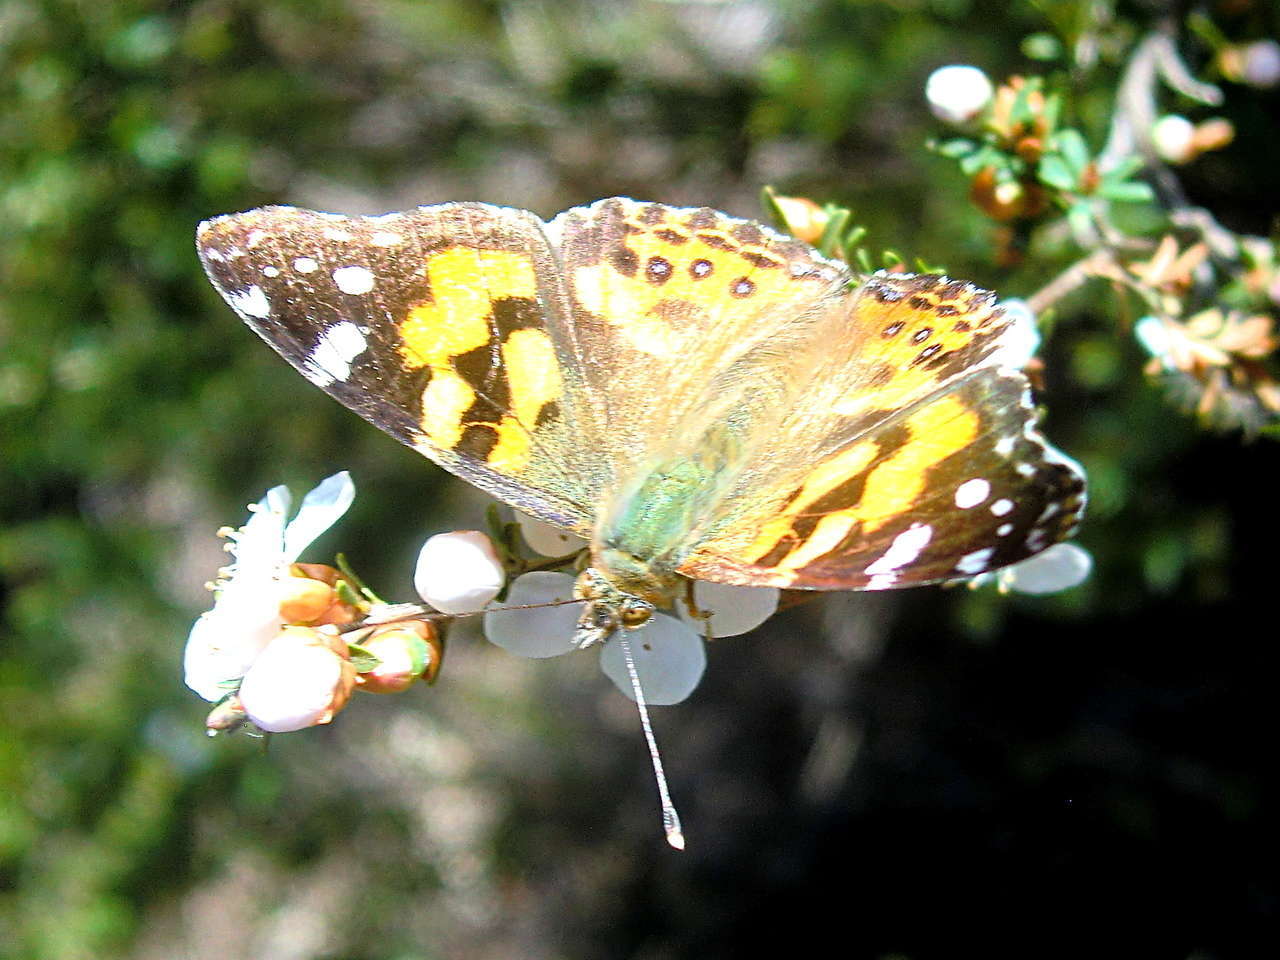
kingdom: Animalia
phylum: Arthropoda
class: Insecta
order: Lepidoptera
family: Nymphalidae
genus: Vanessa
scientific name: Vanessa kershawi
